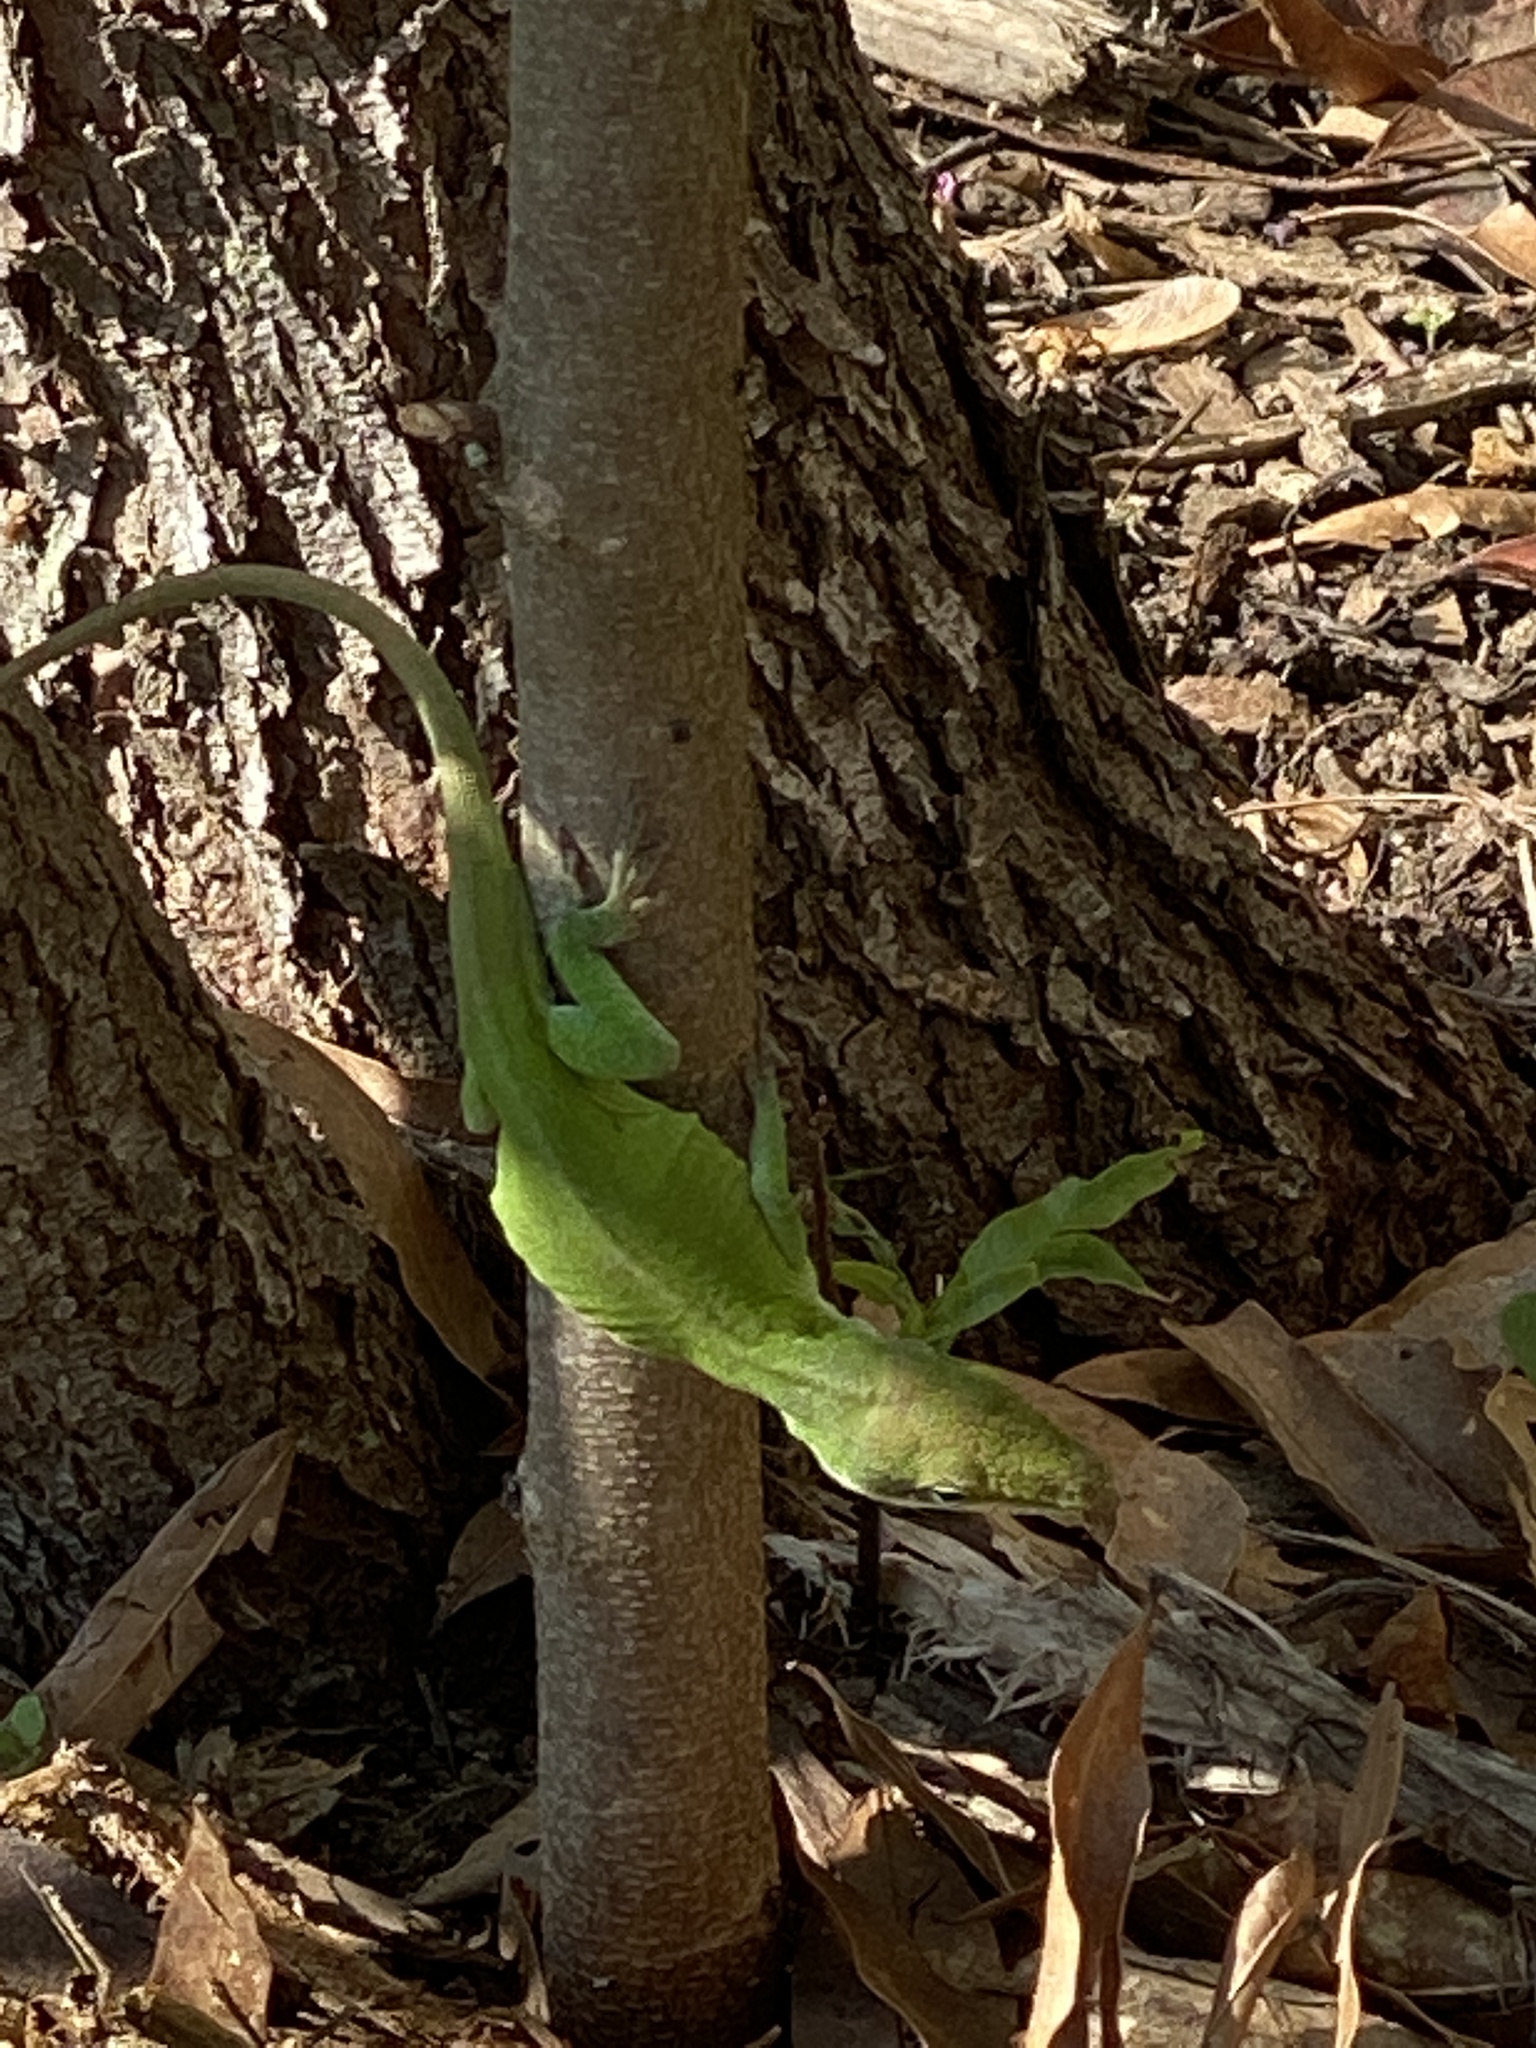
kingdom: Animalia
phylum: Chordata
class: Squamata
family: Dactyloidae
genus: Anolis
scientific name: Anolis carolinensis
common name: Green anole
